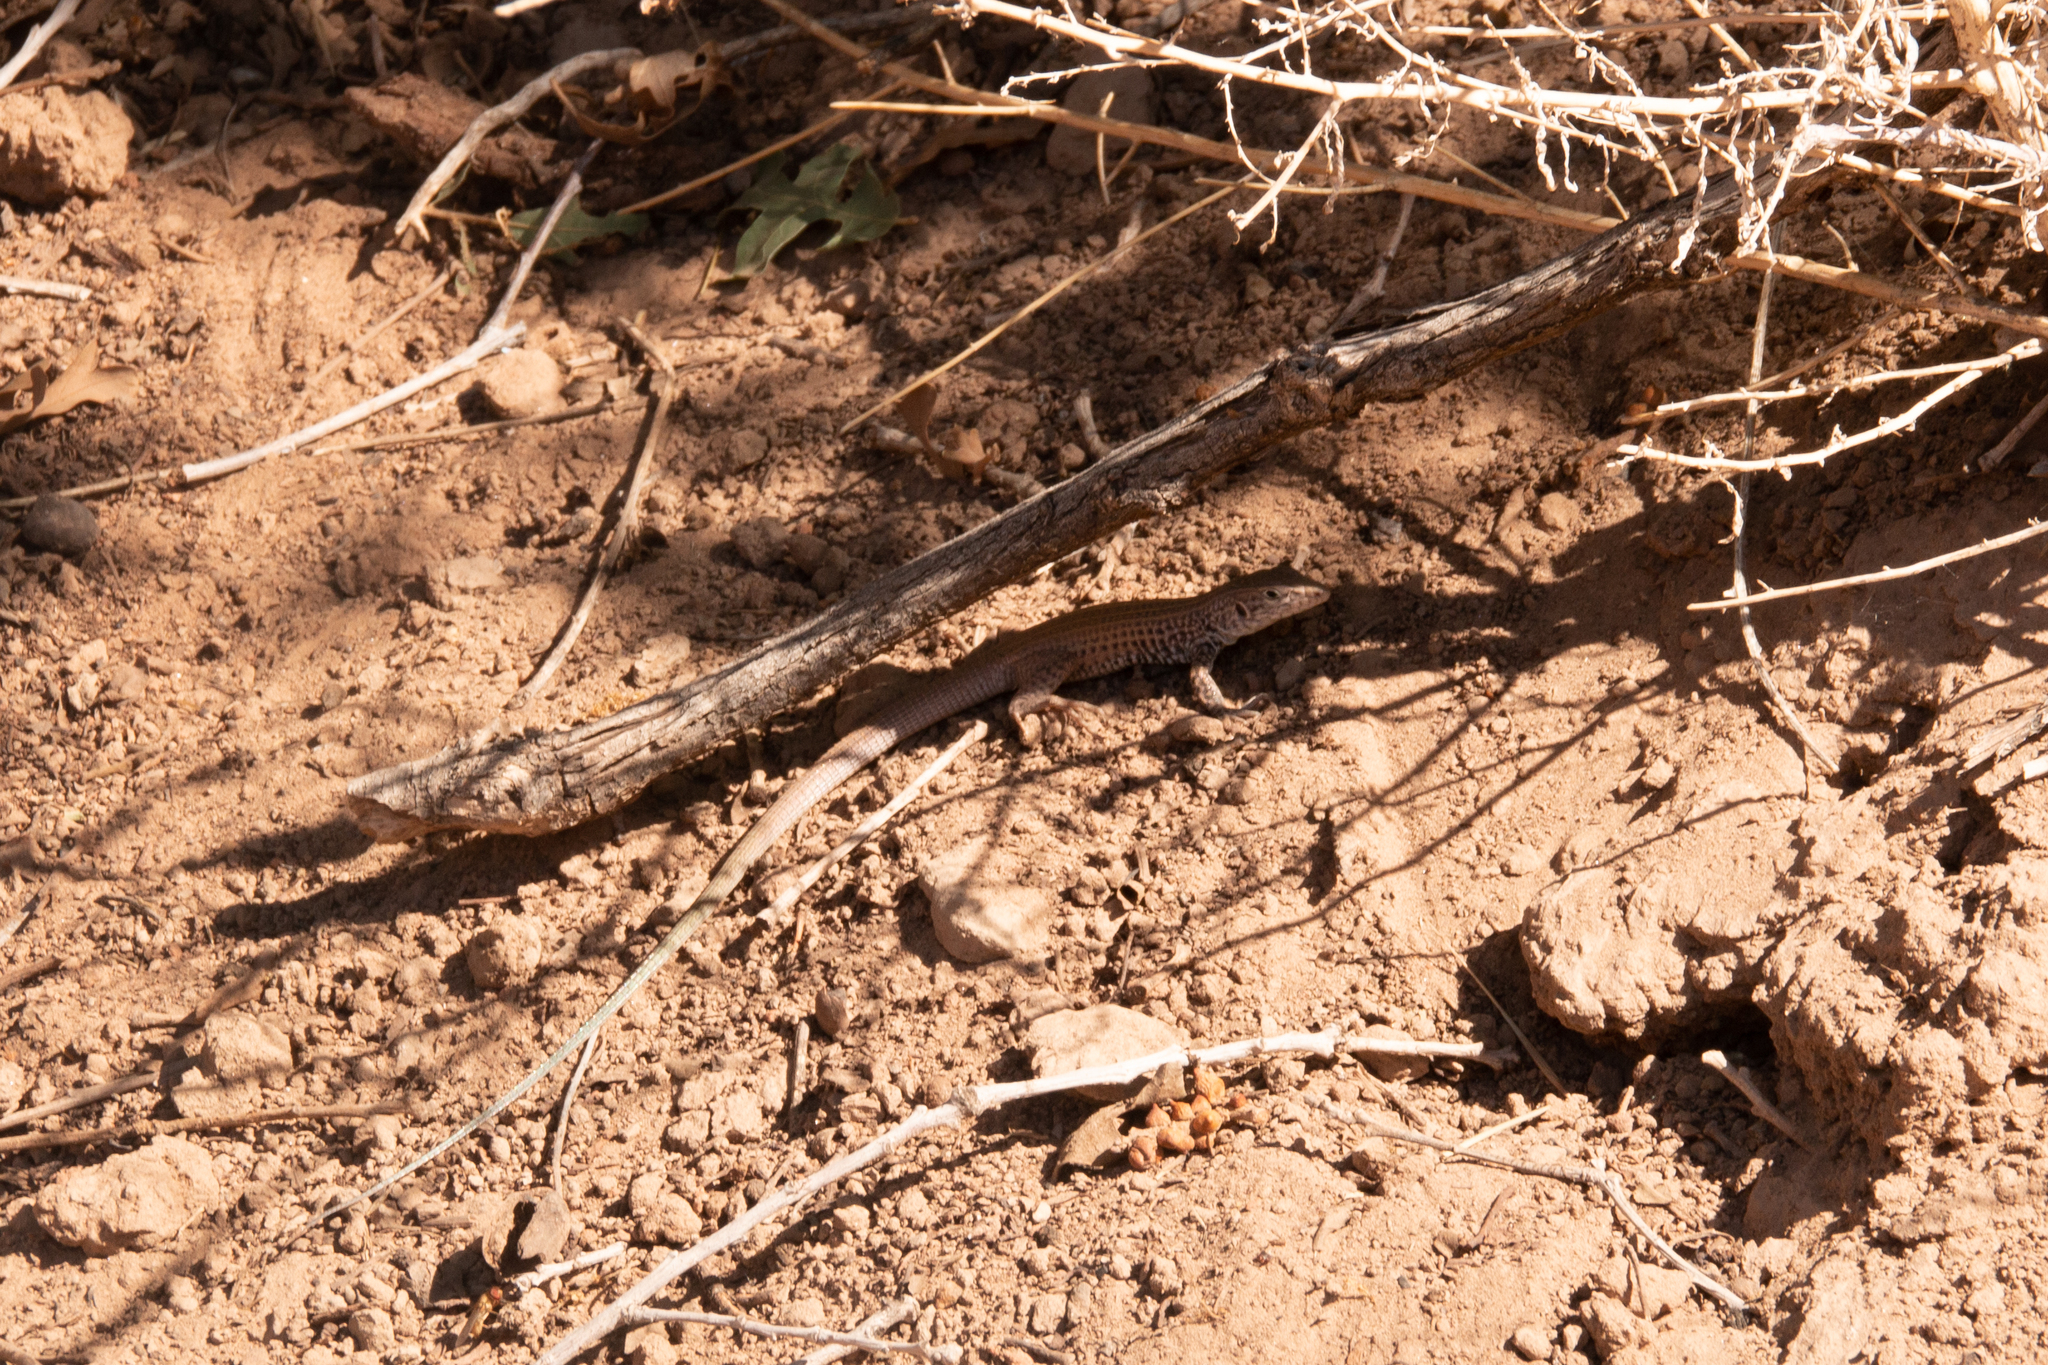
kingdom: Animalia
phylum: Chordata
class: Squamata
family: Teiidae
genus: Aspidoscelis
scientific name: Aspidoscelis tigris
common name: Tiger whiptail
